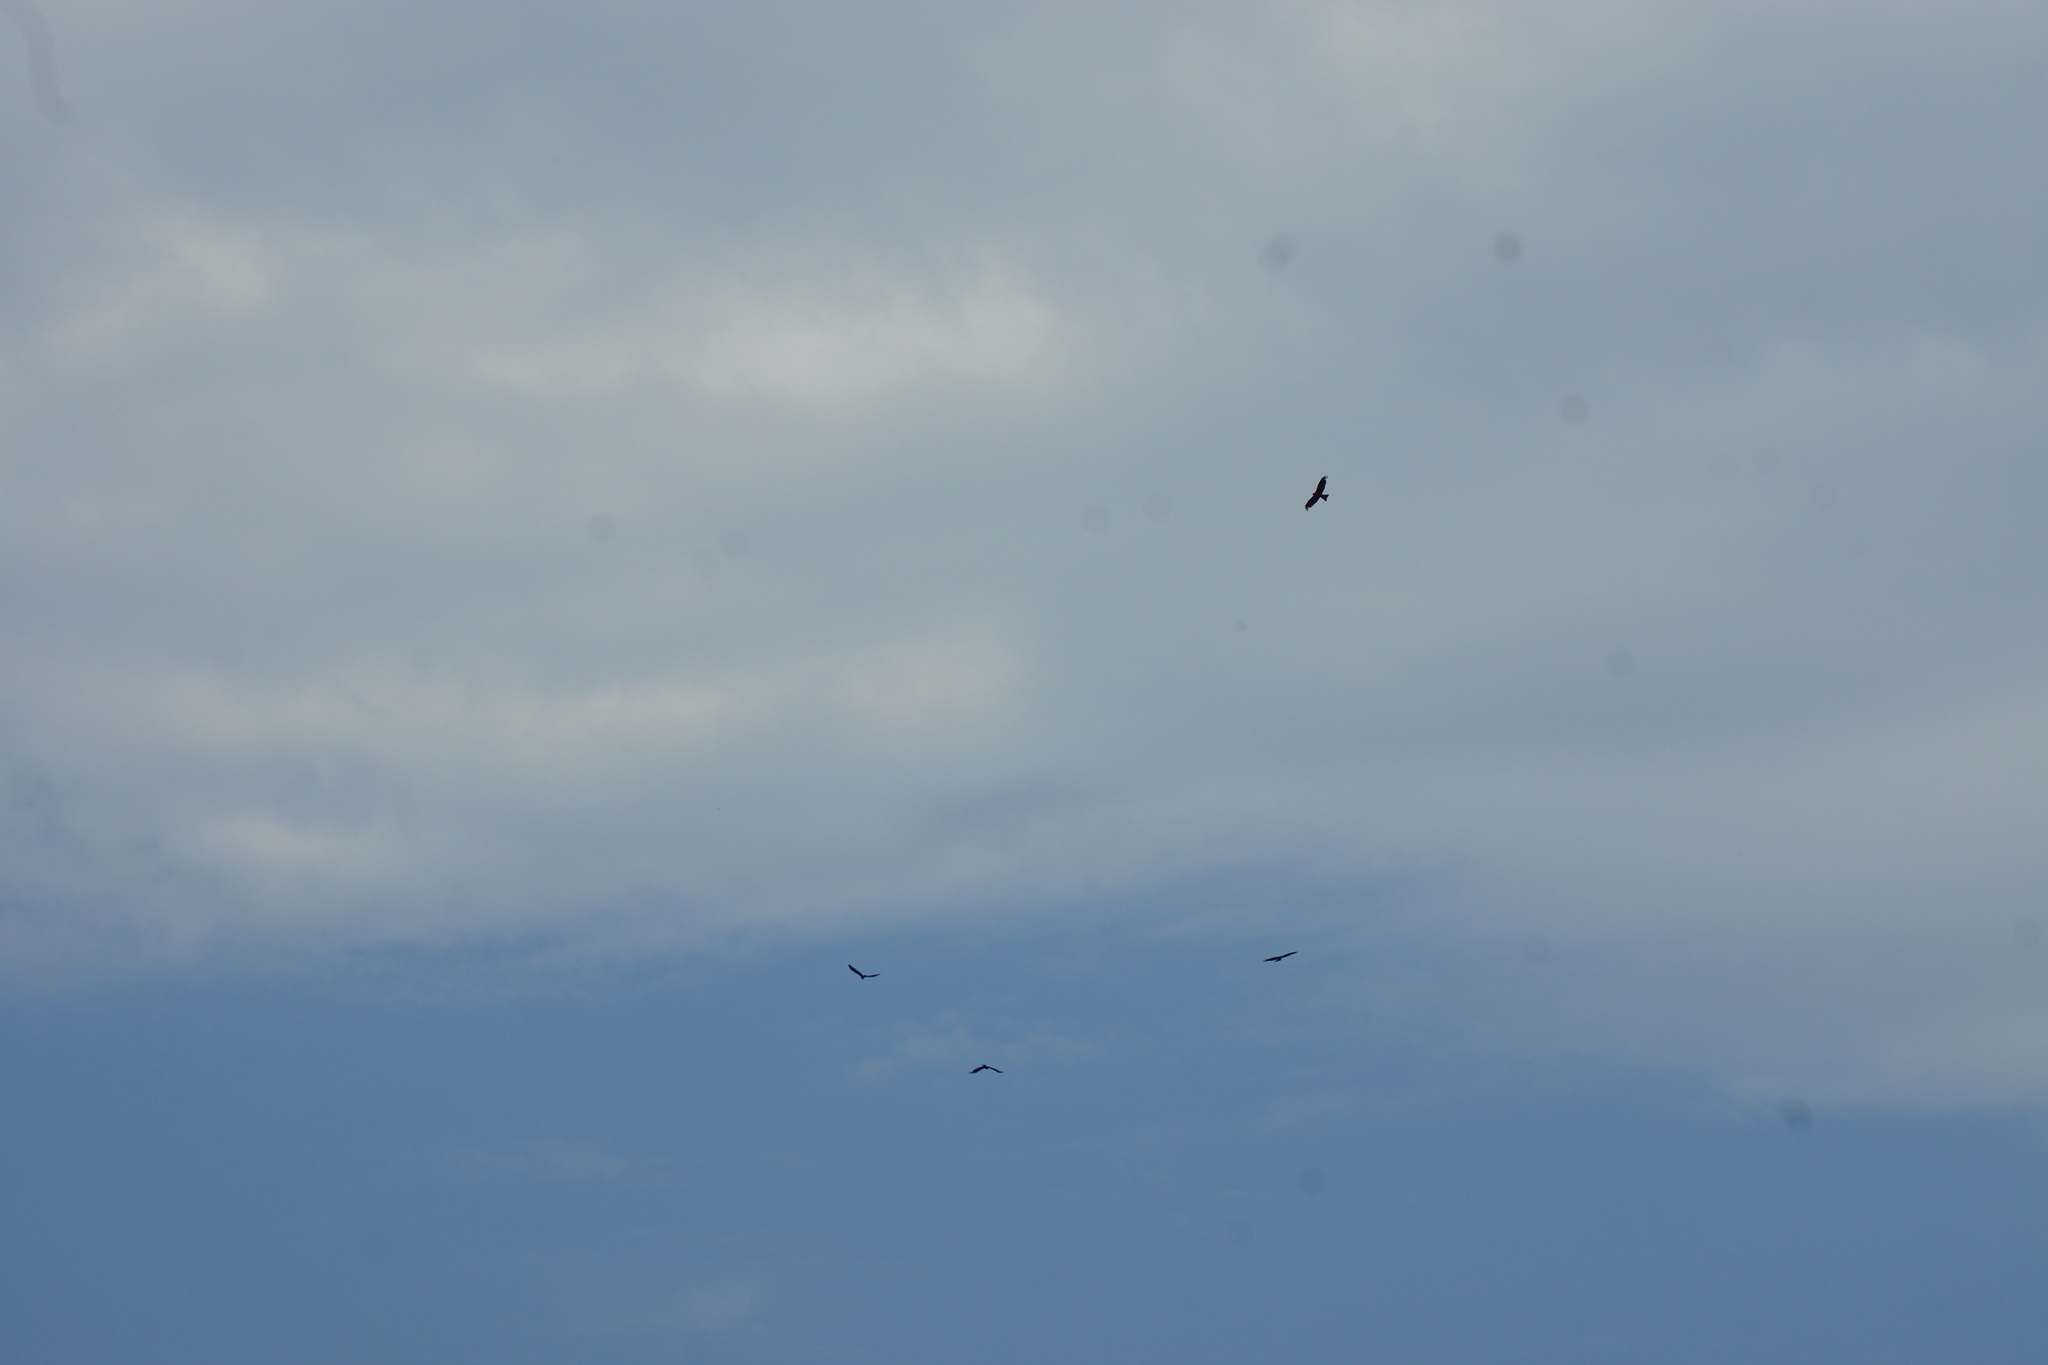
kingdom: Animalia
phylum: Chordata
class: Aves
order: Accipitriformes
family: Accipitridae
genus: Milvus
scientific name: Milvus migrans
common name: Black kite
